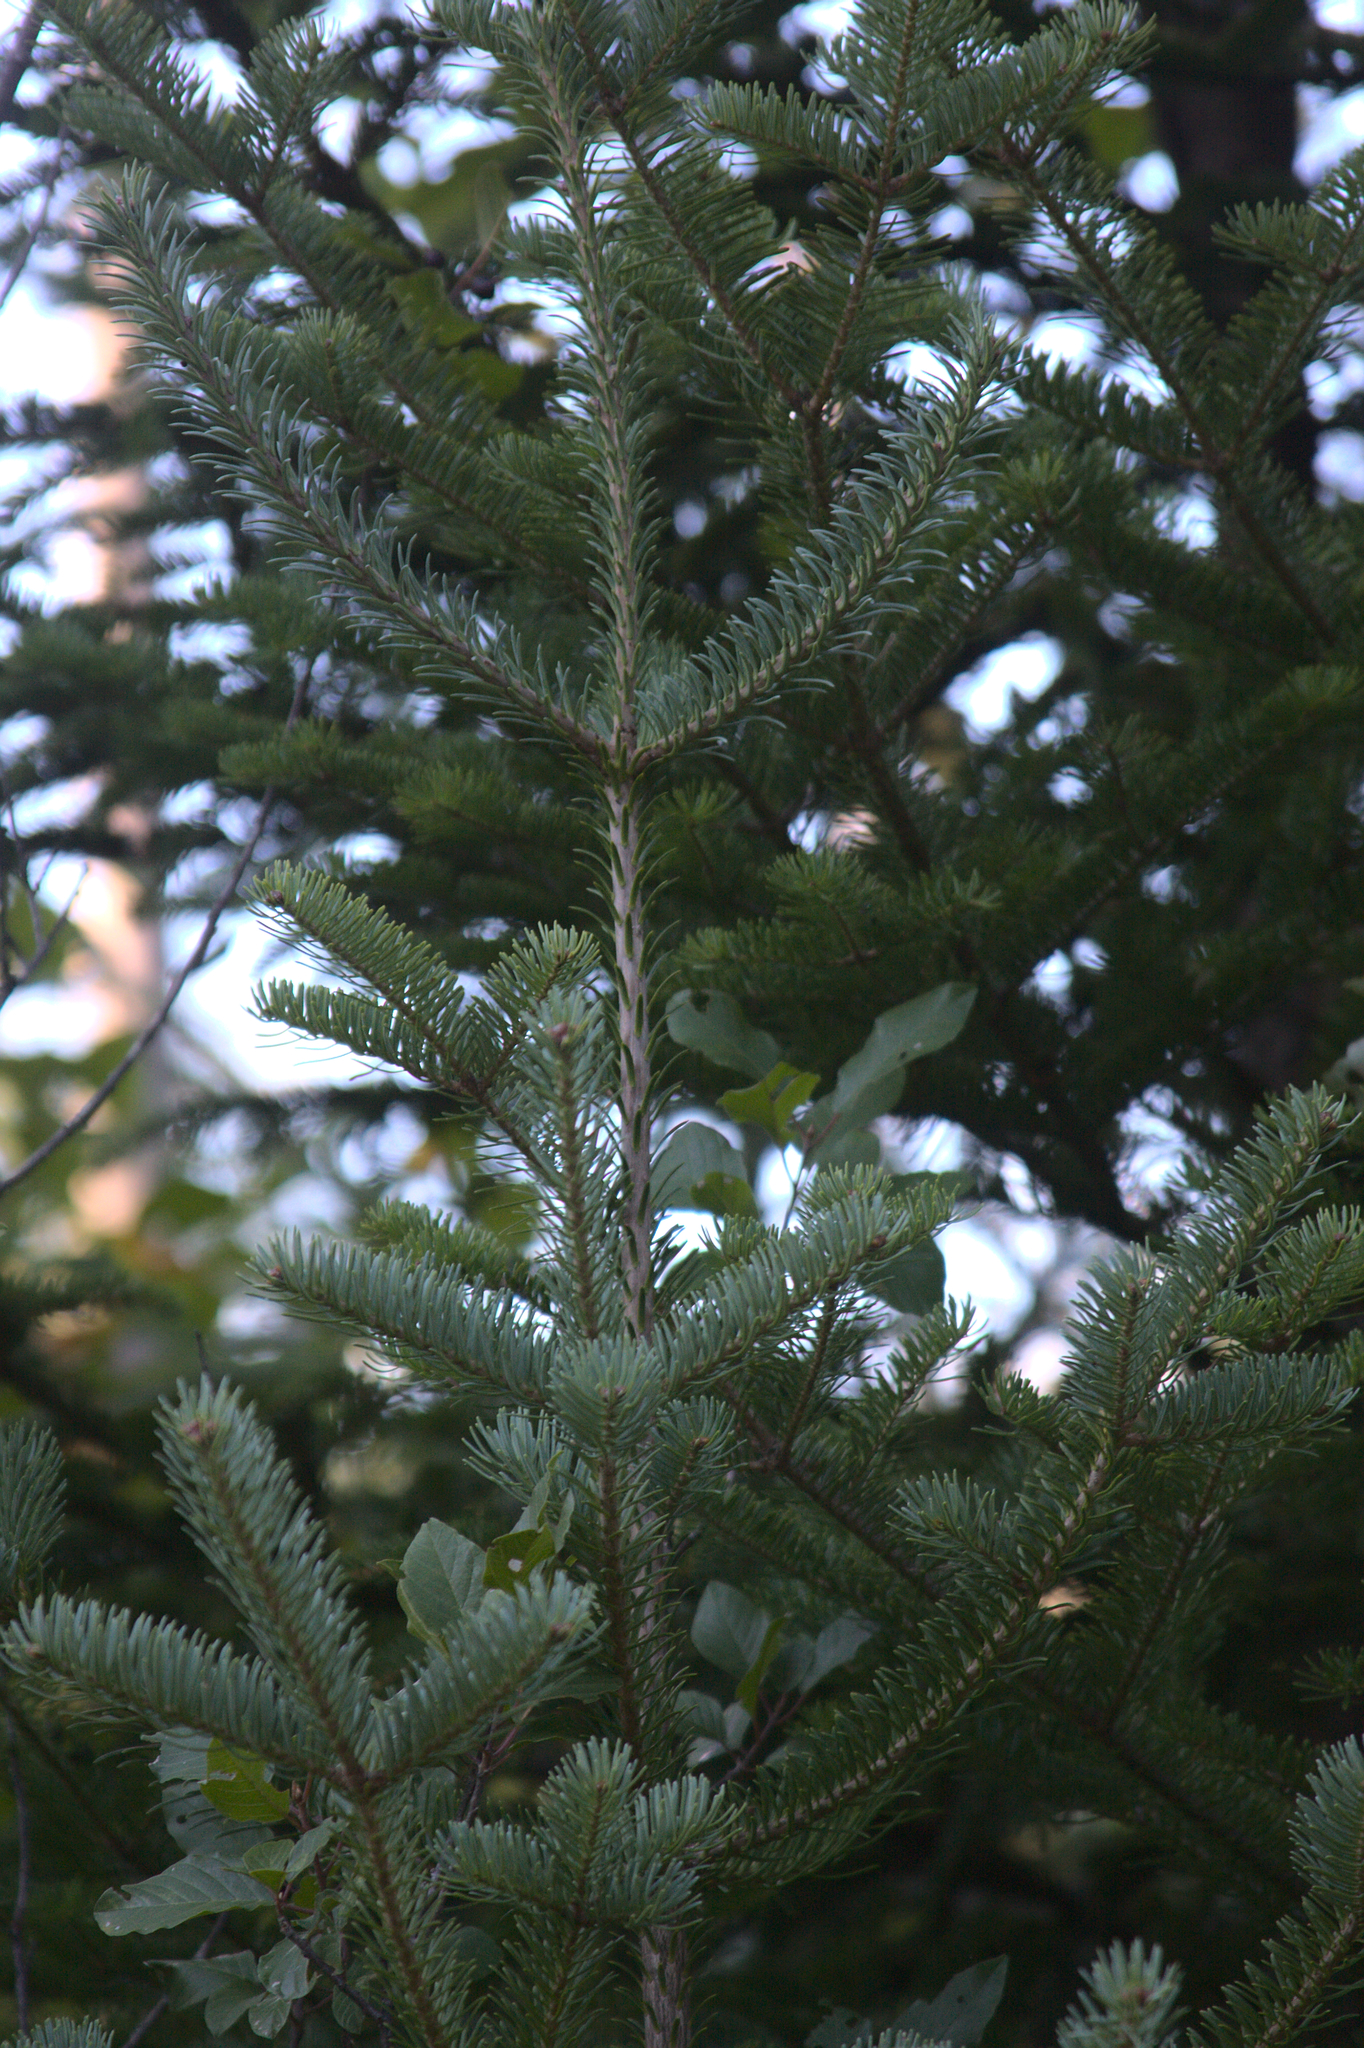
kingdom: Plantae
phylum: Tracheophyta
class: Pinopsida
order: Pinales
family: Pinaceae
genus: Abies
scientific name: Abies balsamea
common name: Balsam fir
